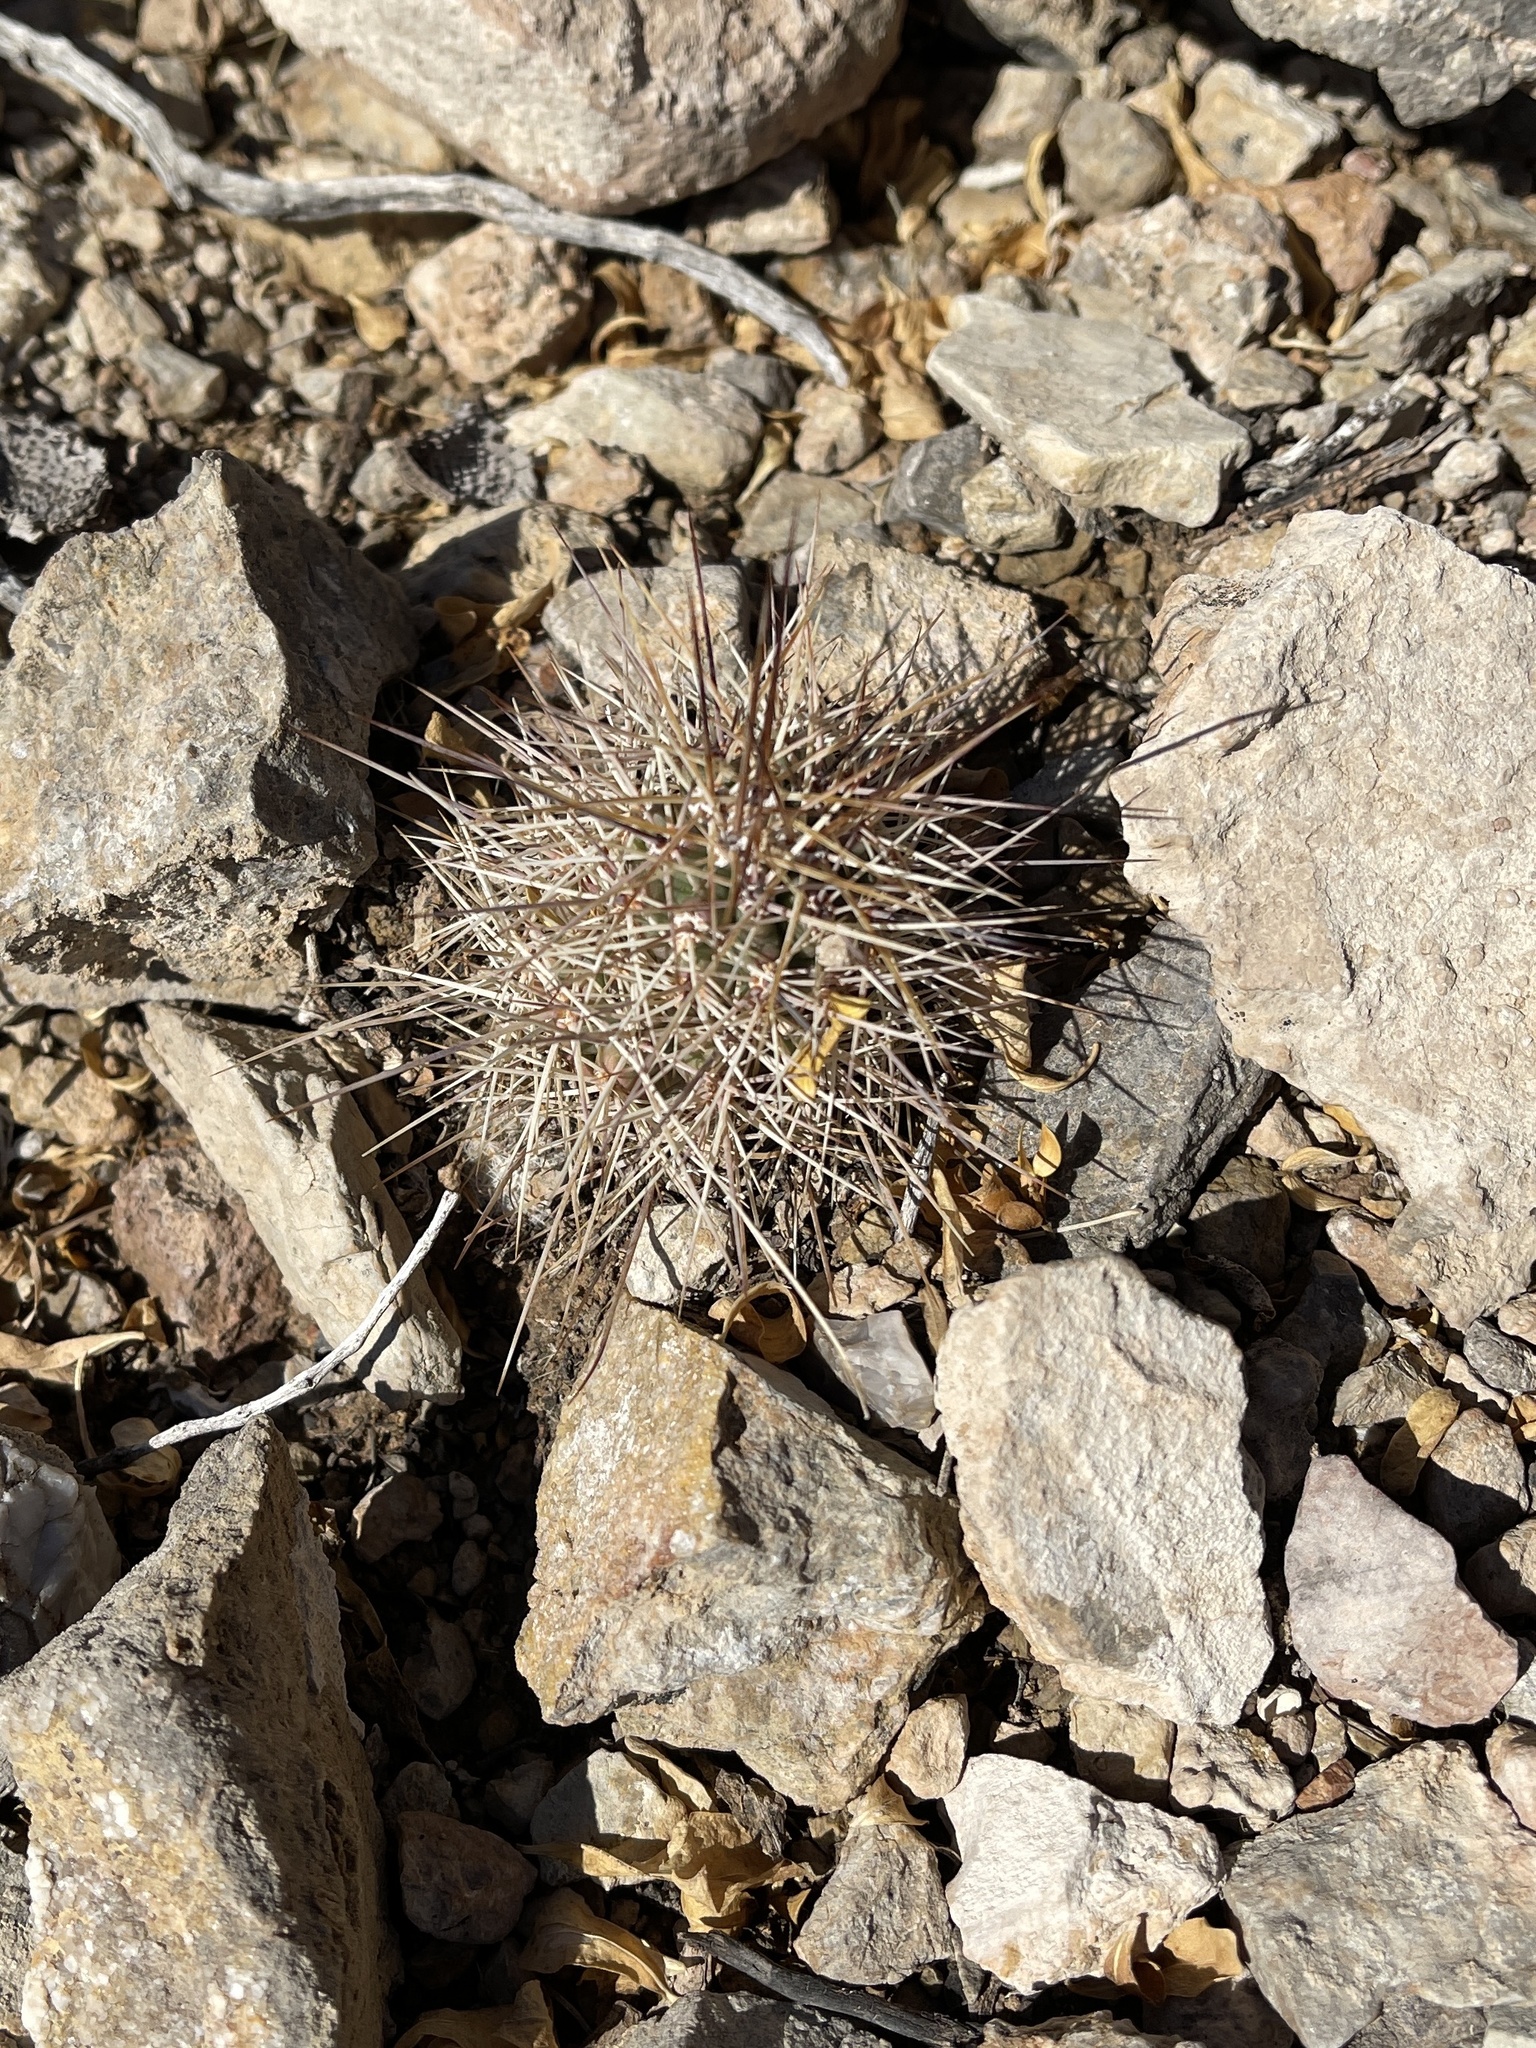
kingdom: Plantae
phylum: Tracheophyta
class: Magnoliopsida
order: Caryophyllales
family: Cactaceae
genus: Echinocereus
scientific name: Echinocereus coccineus
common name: Scarlet hedgehog cactus
